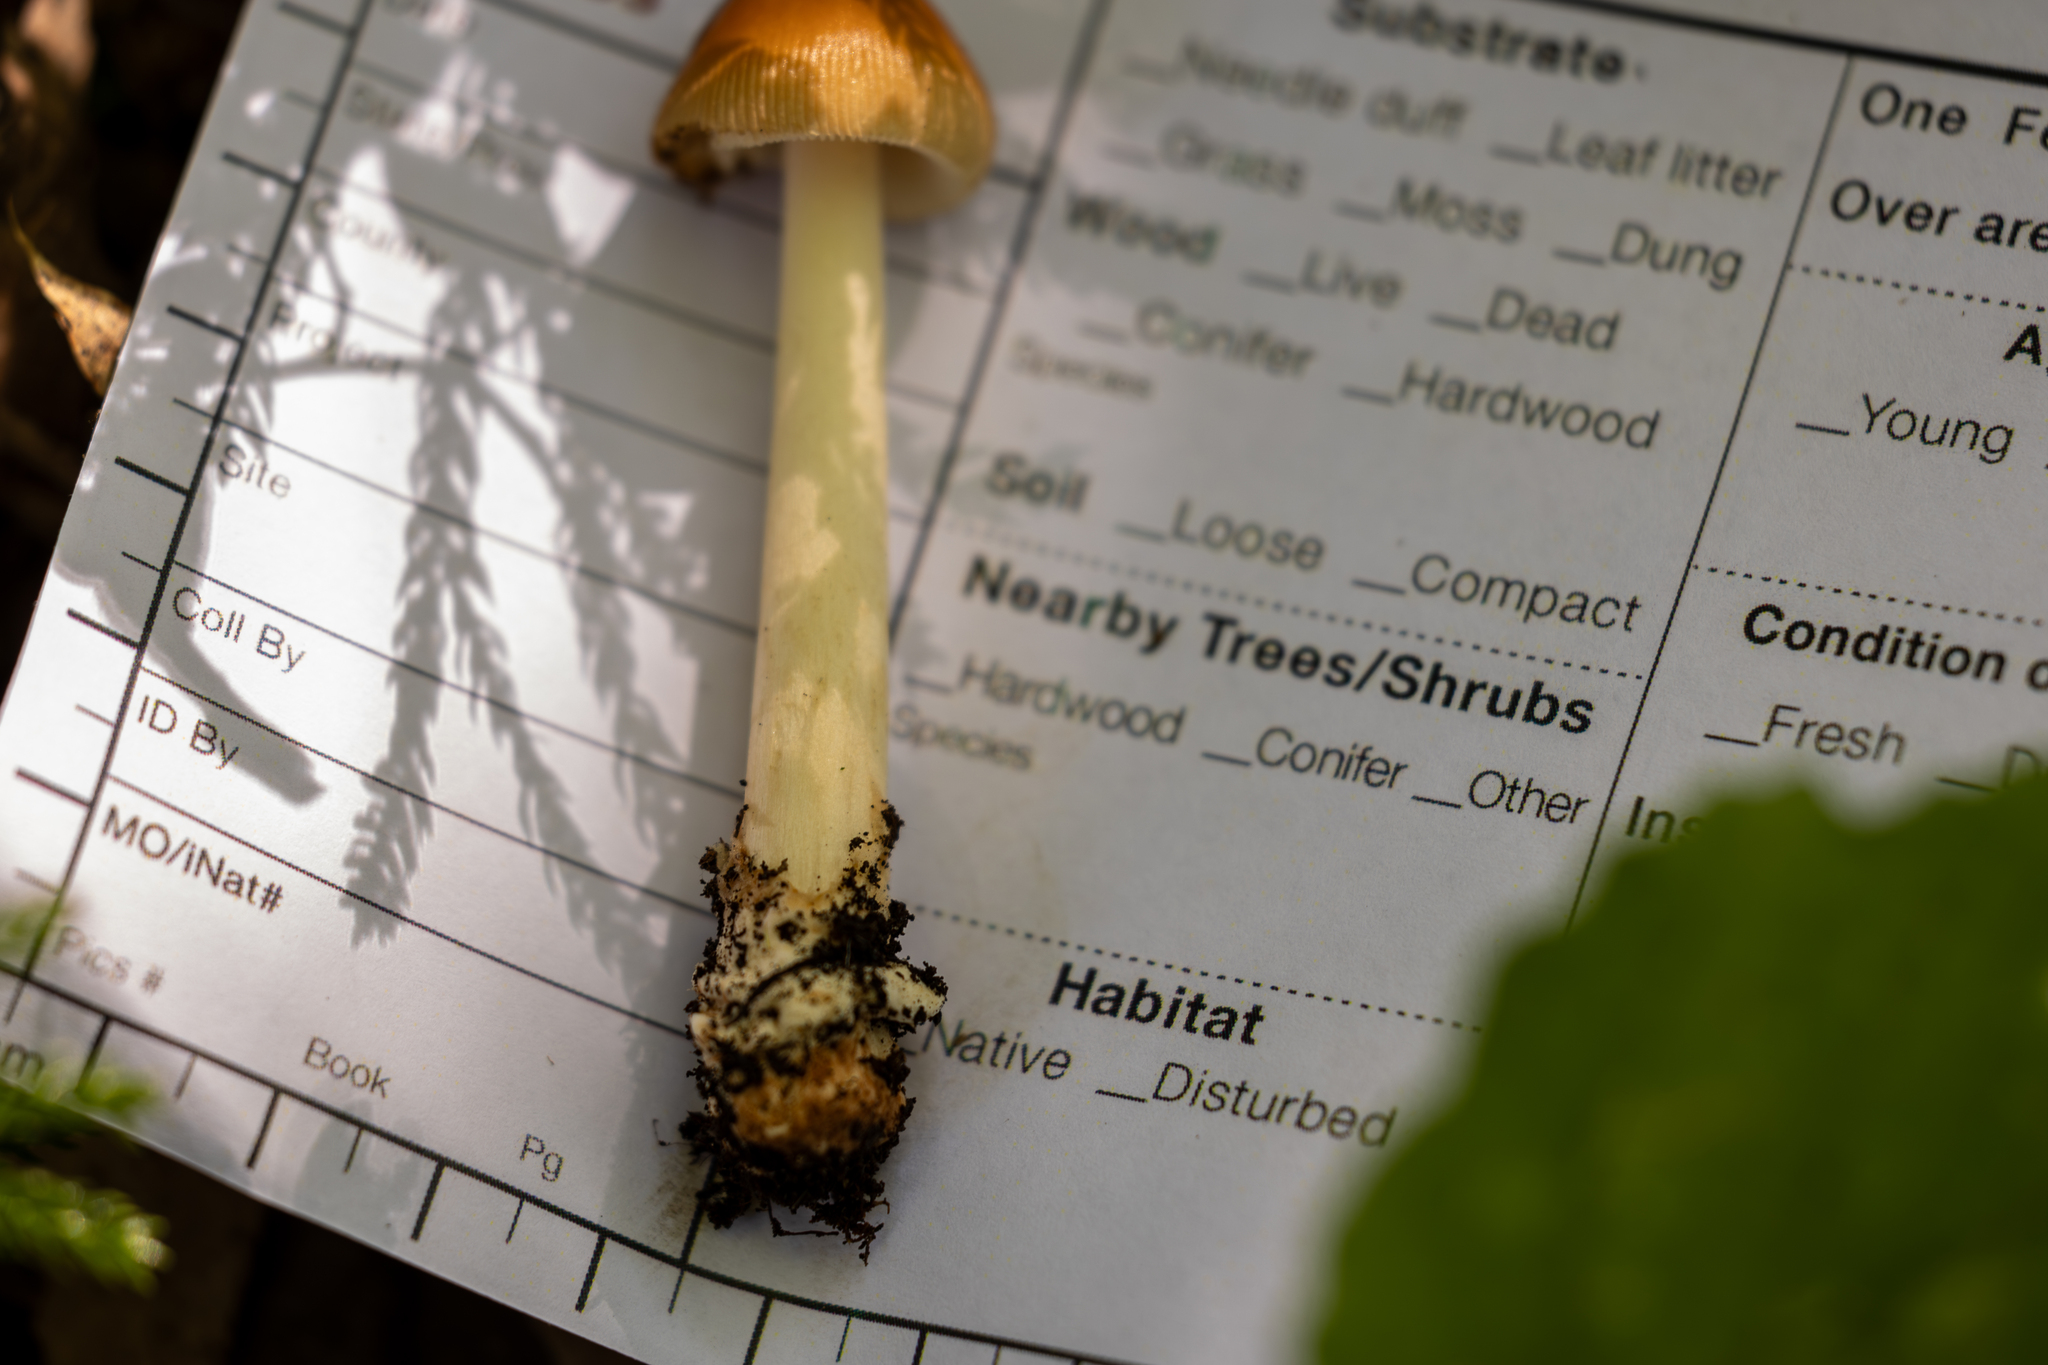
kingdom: Fungi
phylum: Basidiomycota
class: Agaricomycetes
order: Agaricales
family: Amanitaceae
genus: Amanita
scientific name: Amanita fulva
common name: Tawny grisette
